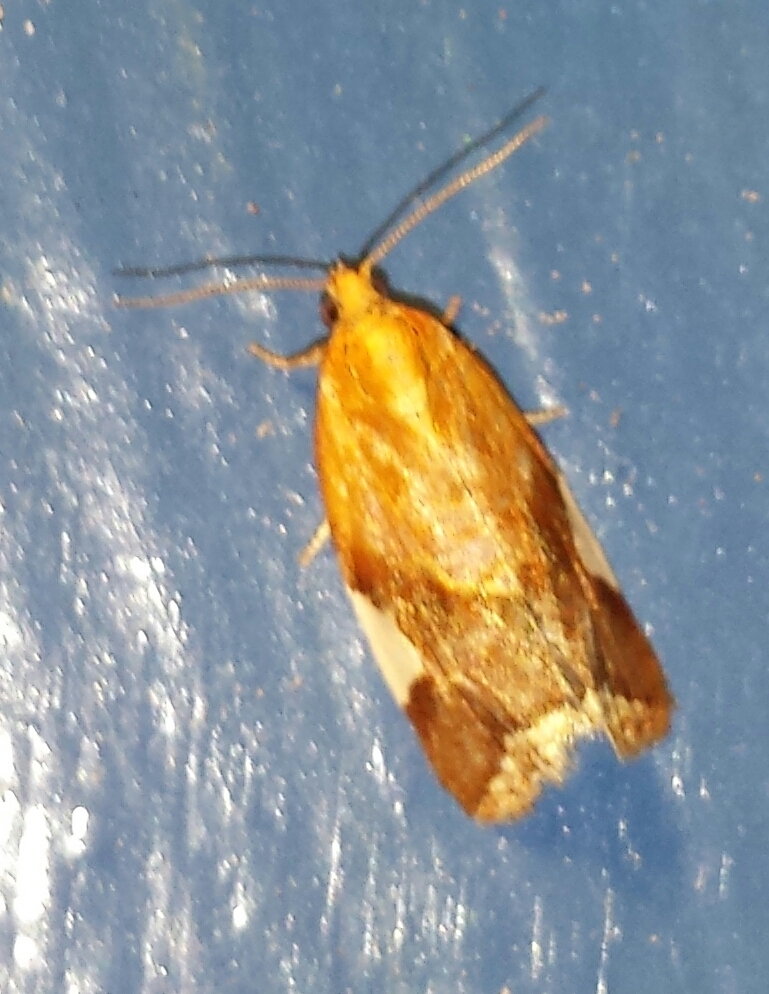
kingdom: Animalia
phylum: Arthropoda
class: Insecta
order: Lepidoptera
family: Tortricidae
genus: Clepsis
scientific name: Clepsis persicana
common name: White triangle tortrix
